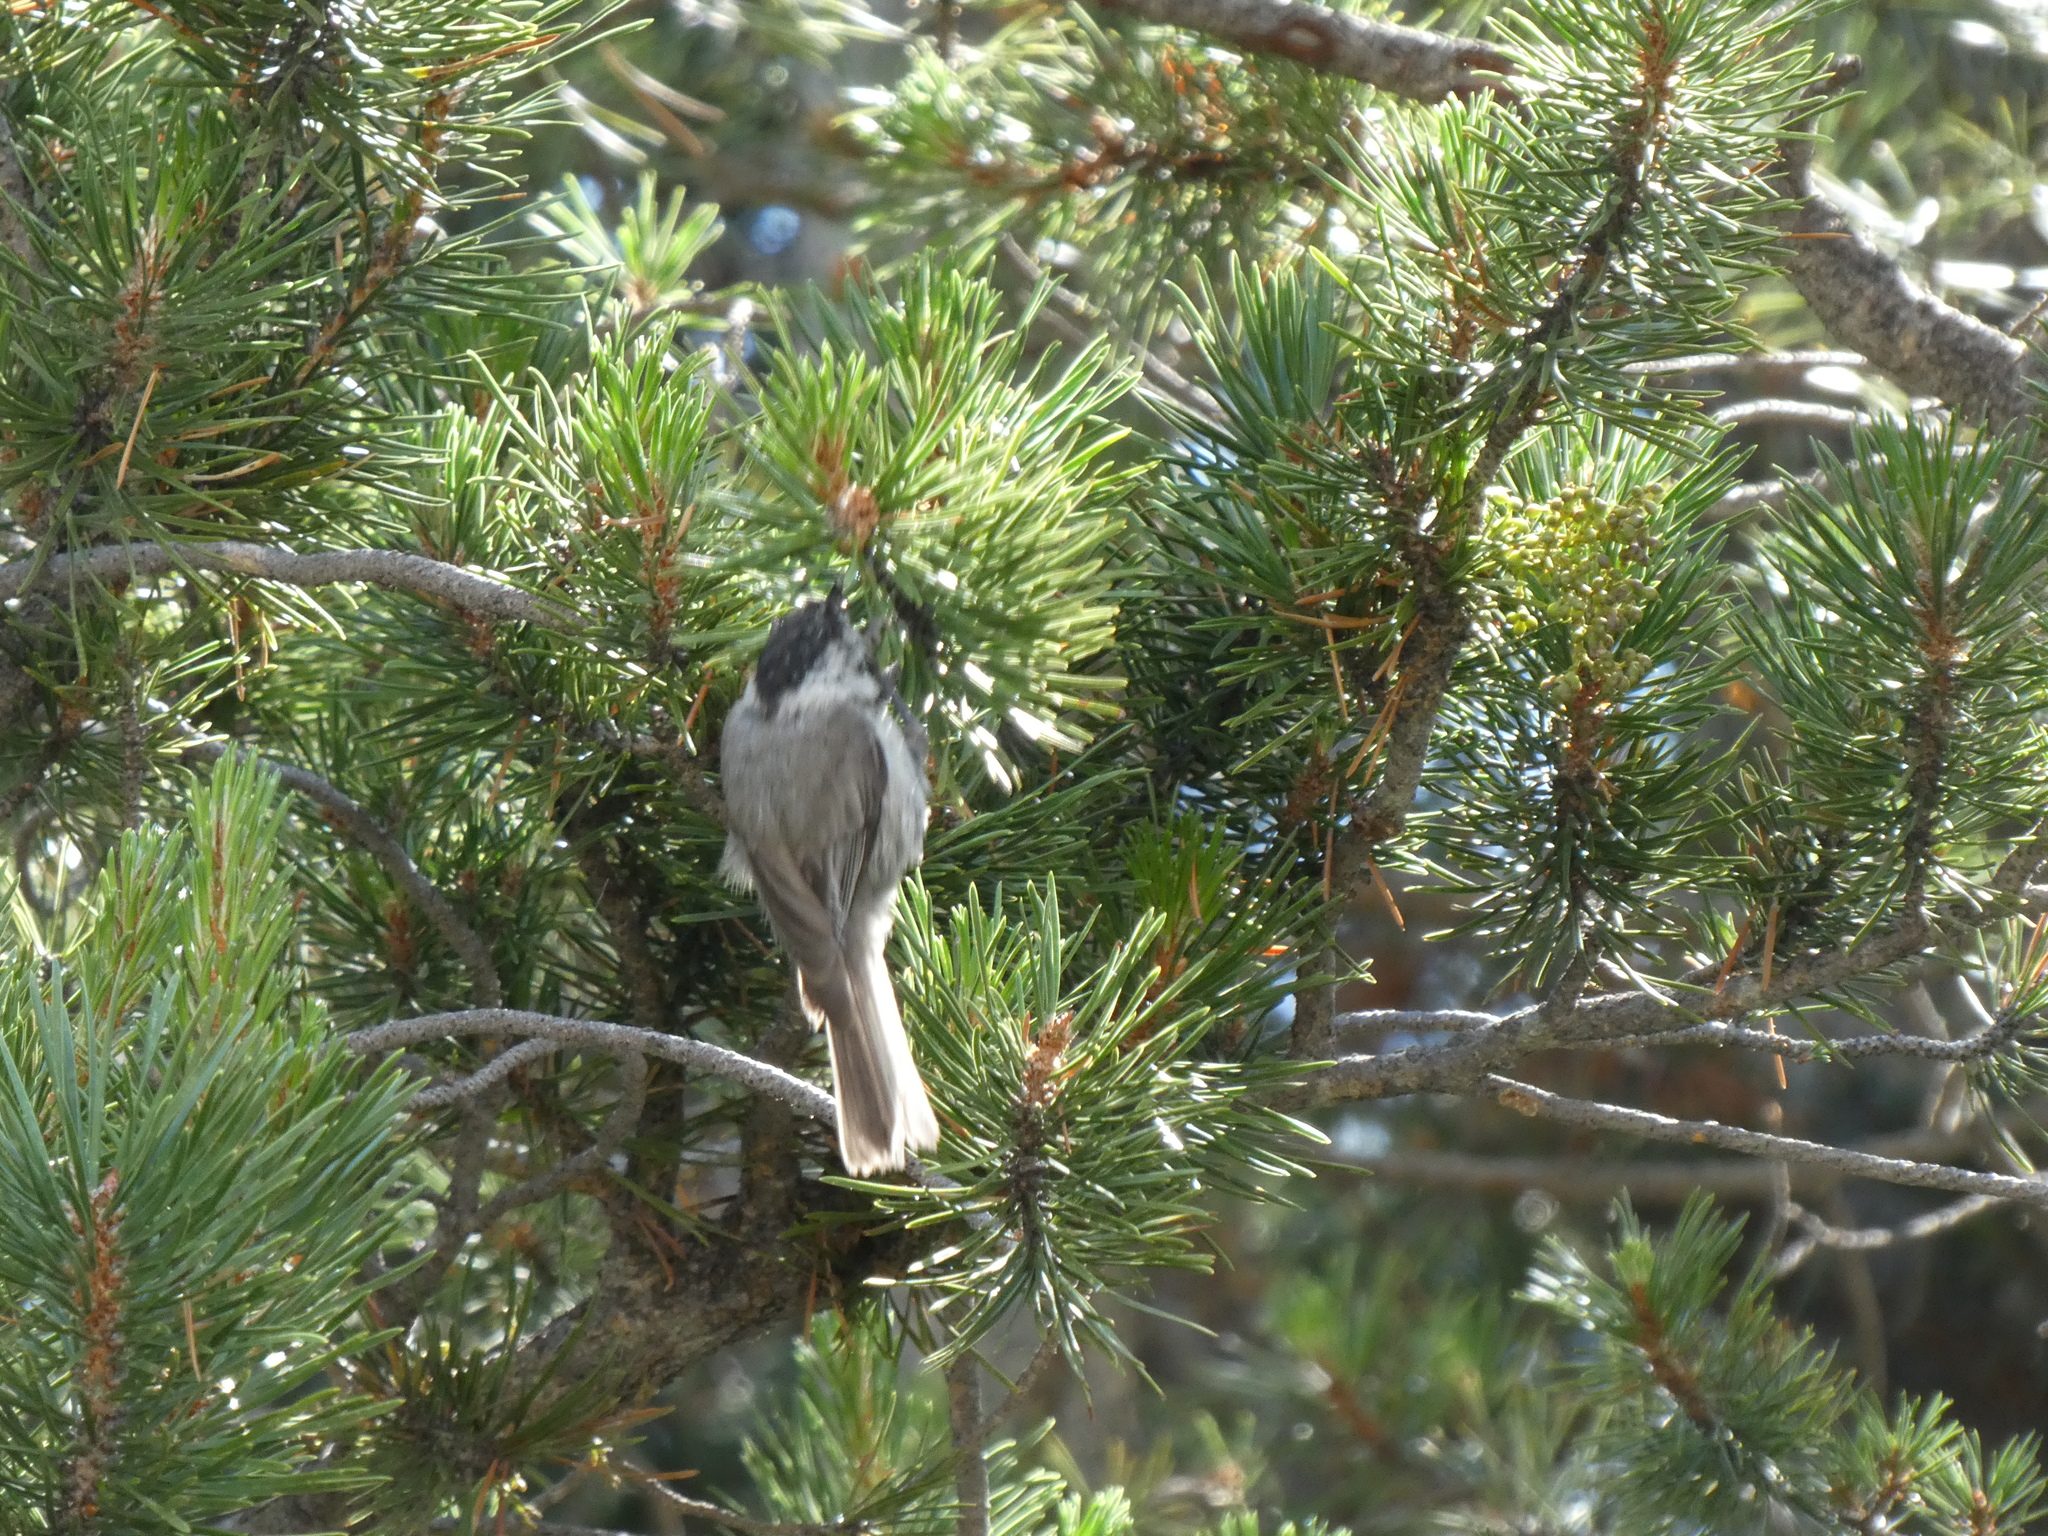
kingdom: Animalia
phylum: Chordata
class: Aves
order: Passeriformes
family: Paridae
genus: Poecile
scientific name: Poecile gambeli
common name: Mountain chickadee
